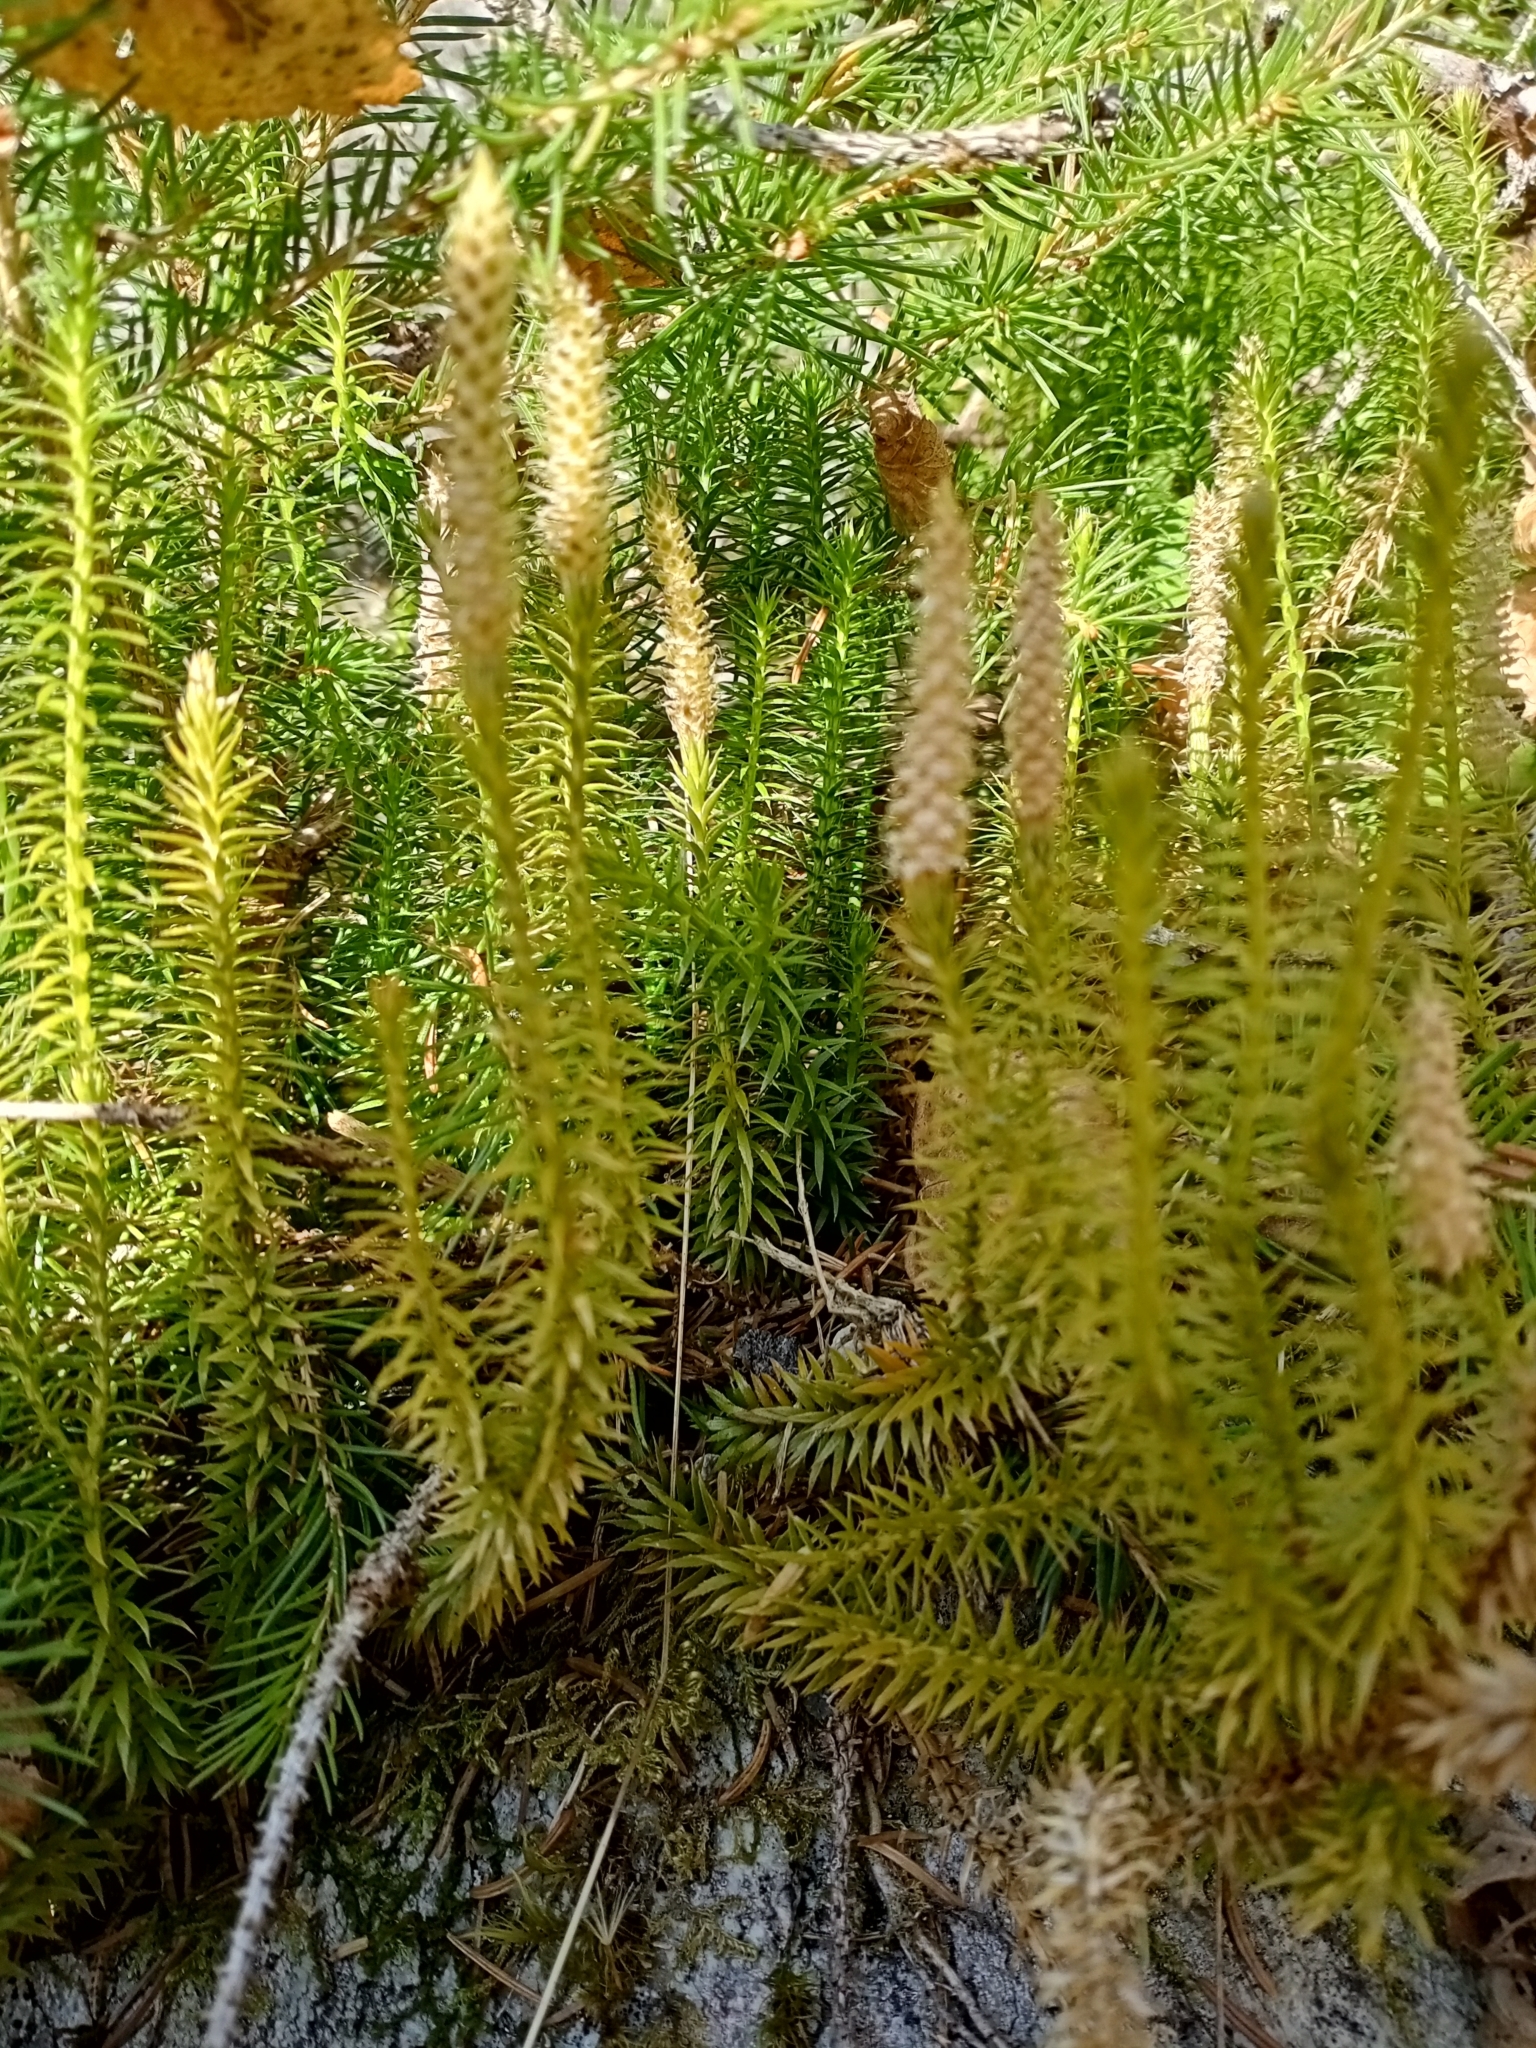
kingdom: Plantae
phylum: Tracheophyta
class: Lycopodiopsida
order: Lycopodiales
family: Lycopodiaceae
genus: Spinulum
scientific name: Spinulum annotinum
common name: Interrupted club-moss
